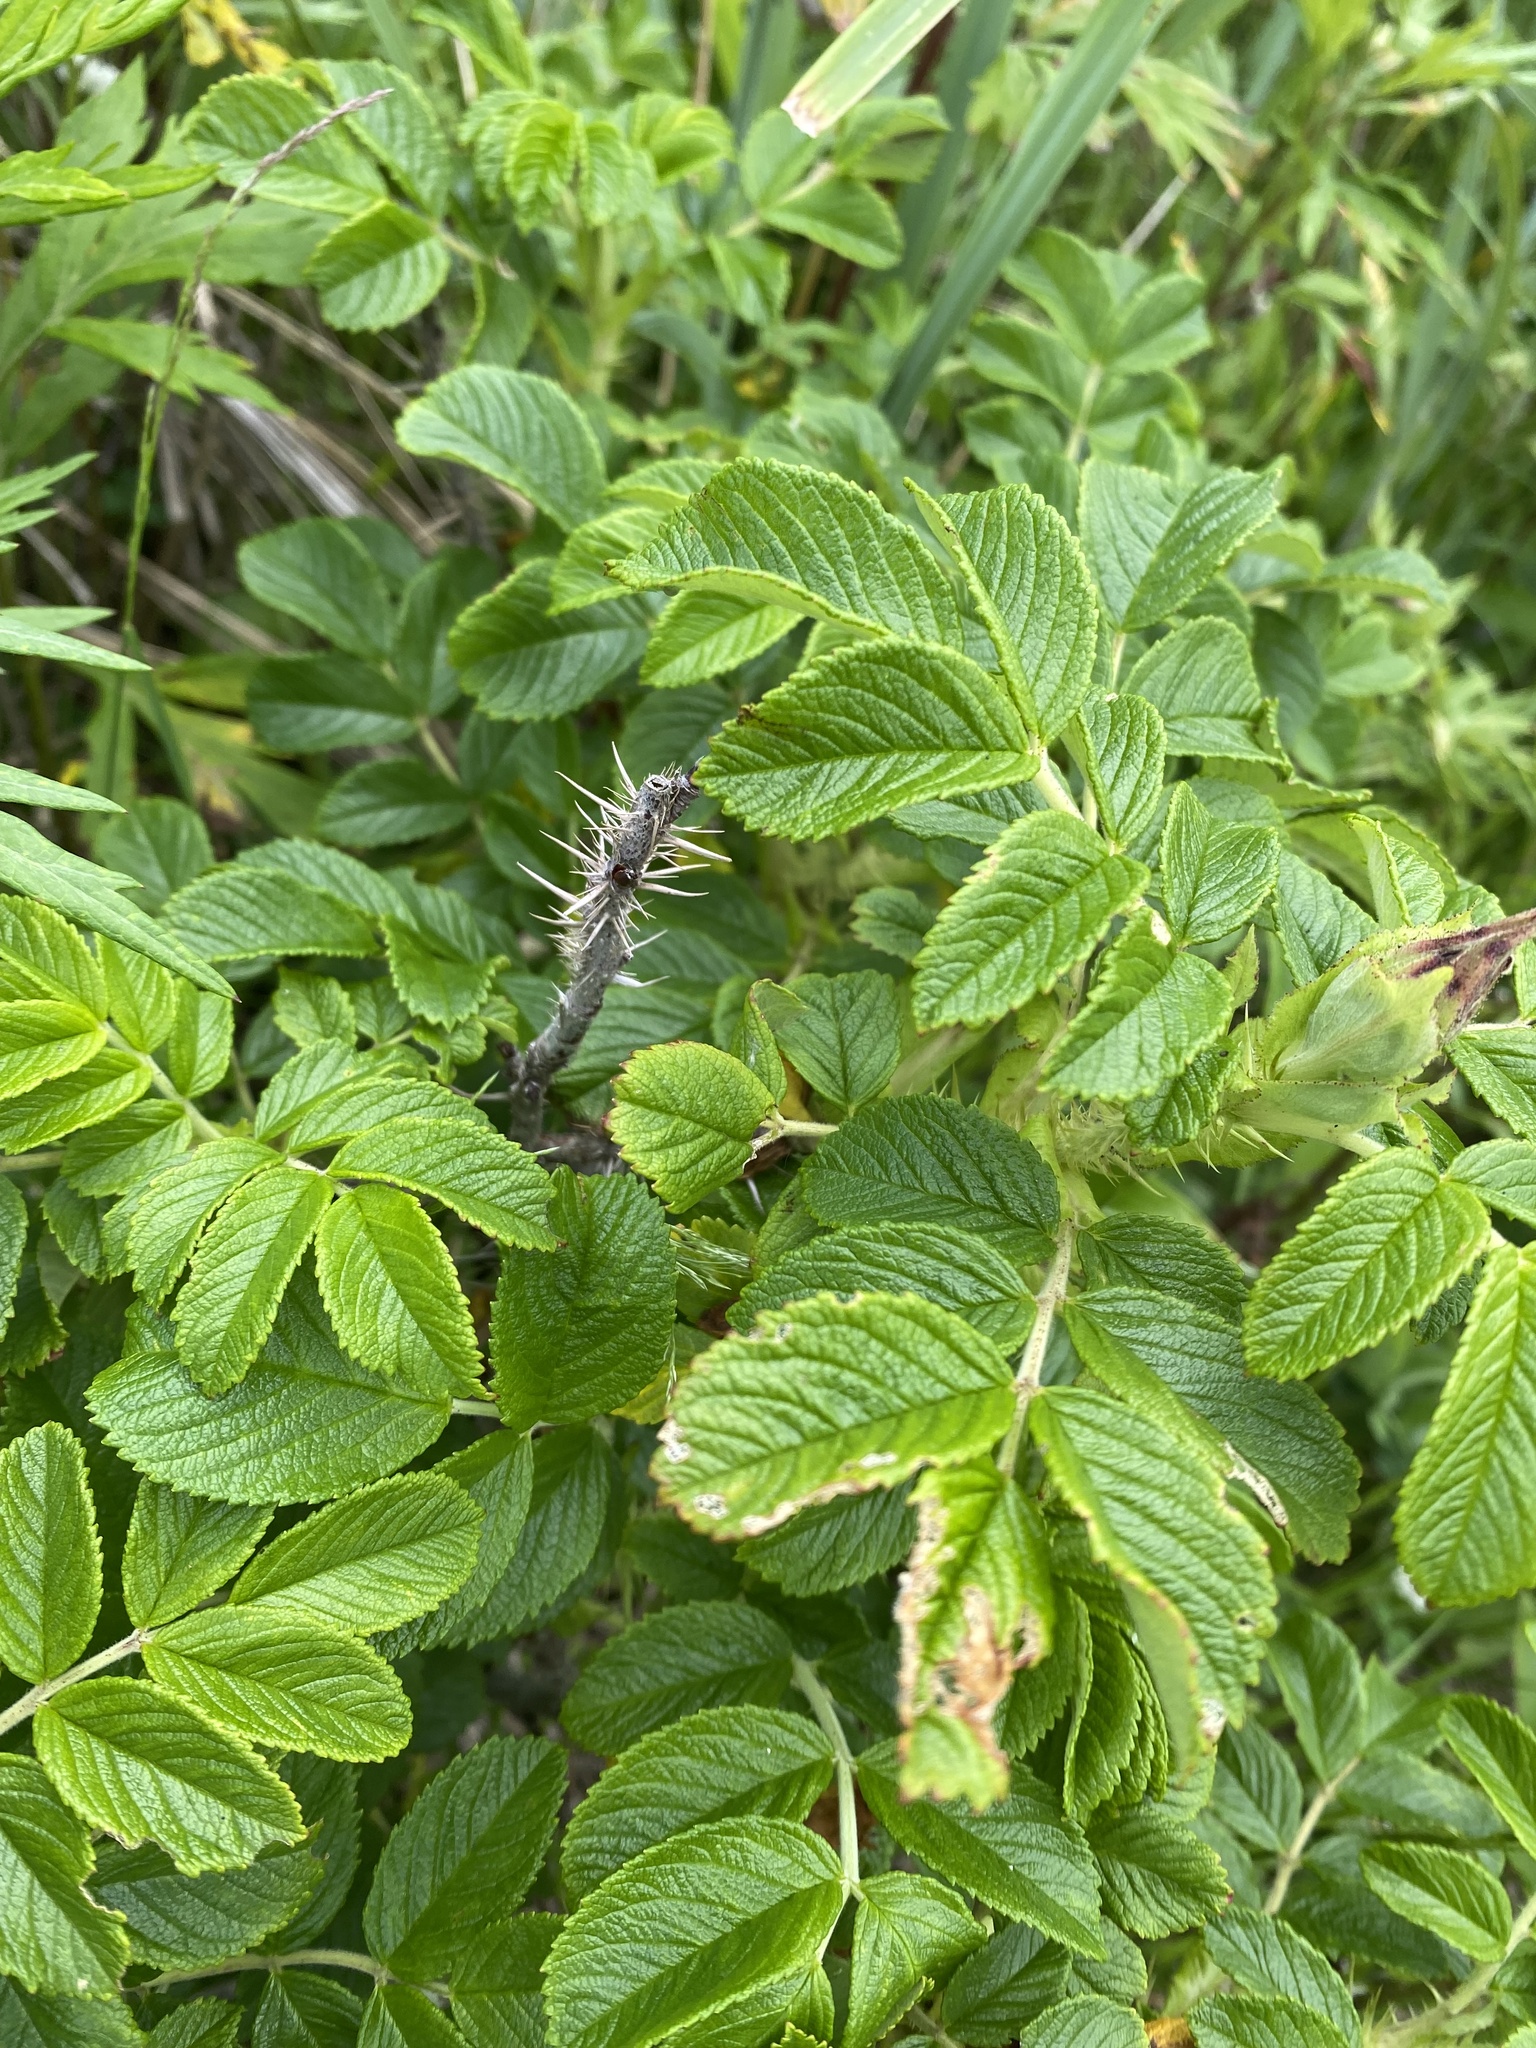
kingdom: Plantae
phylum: Tracheophyta
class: Magnoliopsida
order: Rosales
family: Rosaceae
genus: Rosa
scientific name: Rosa rugosa
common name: Japanese rose
